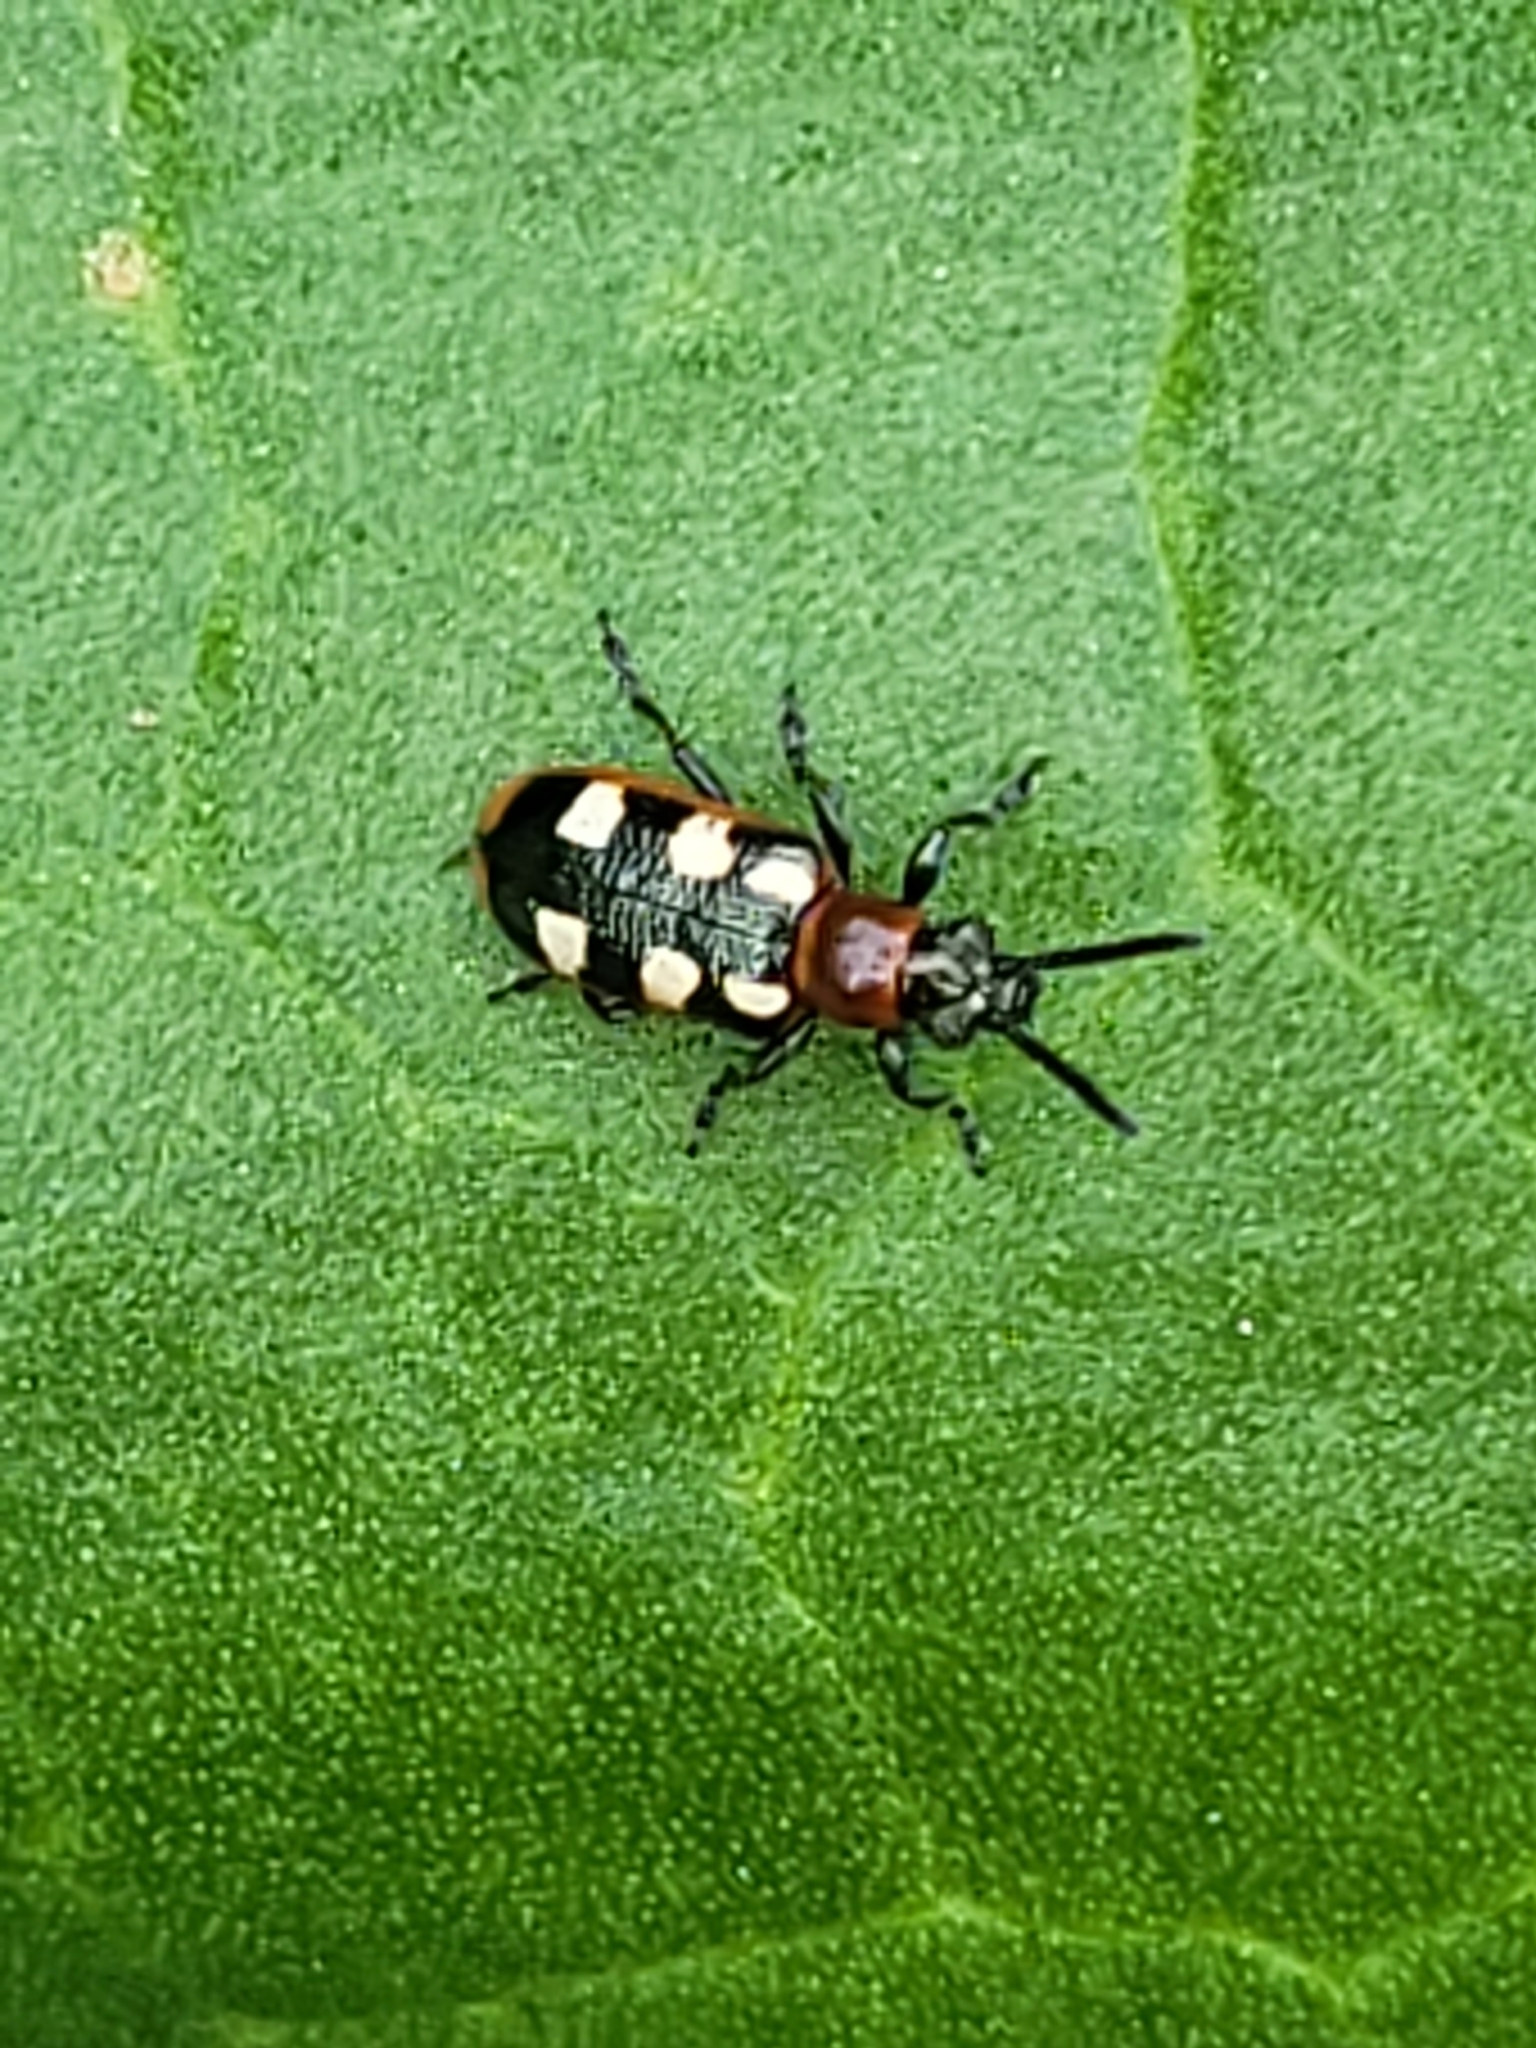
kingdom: Animalia
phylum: Arthropoda
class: Insecta
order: Coleoptera
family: Chrysomelidae
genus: Crioceris
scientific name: Crioceris asparagi
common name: Asparagus beetle
